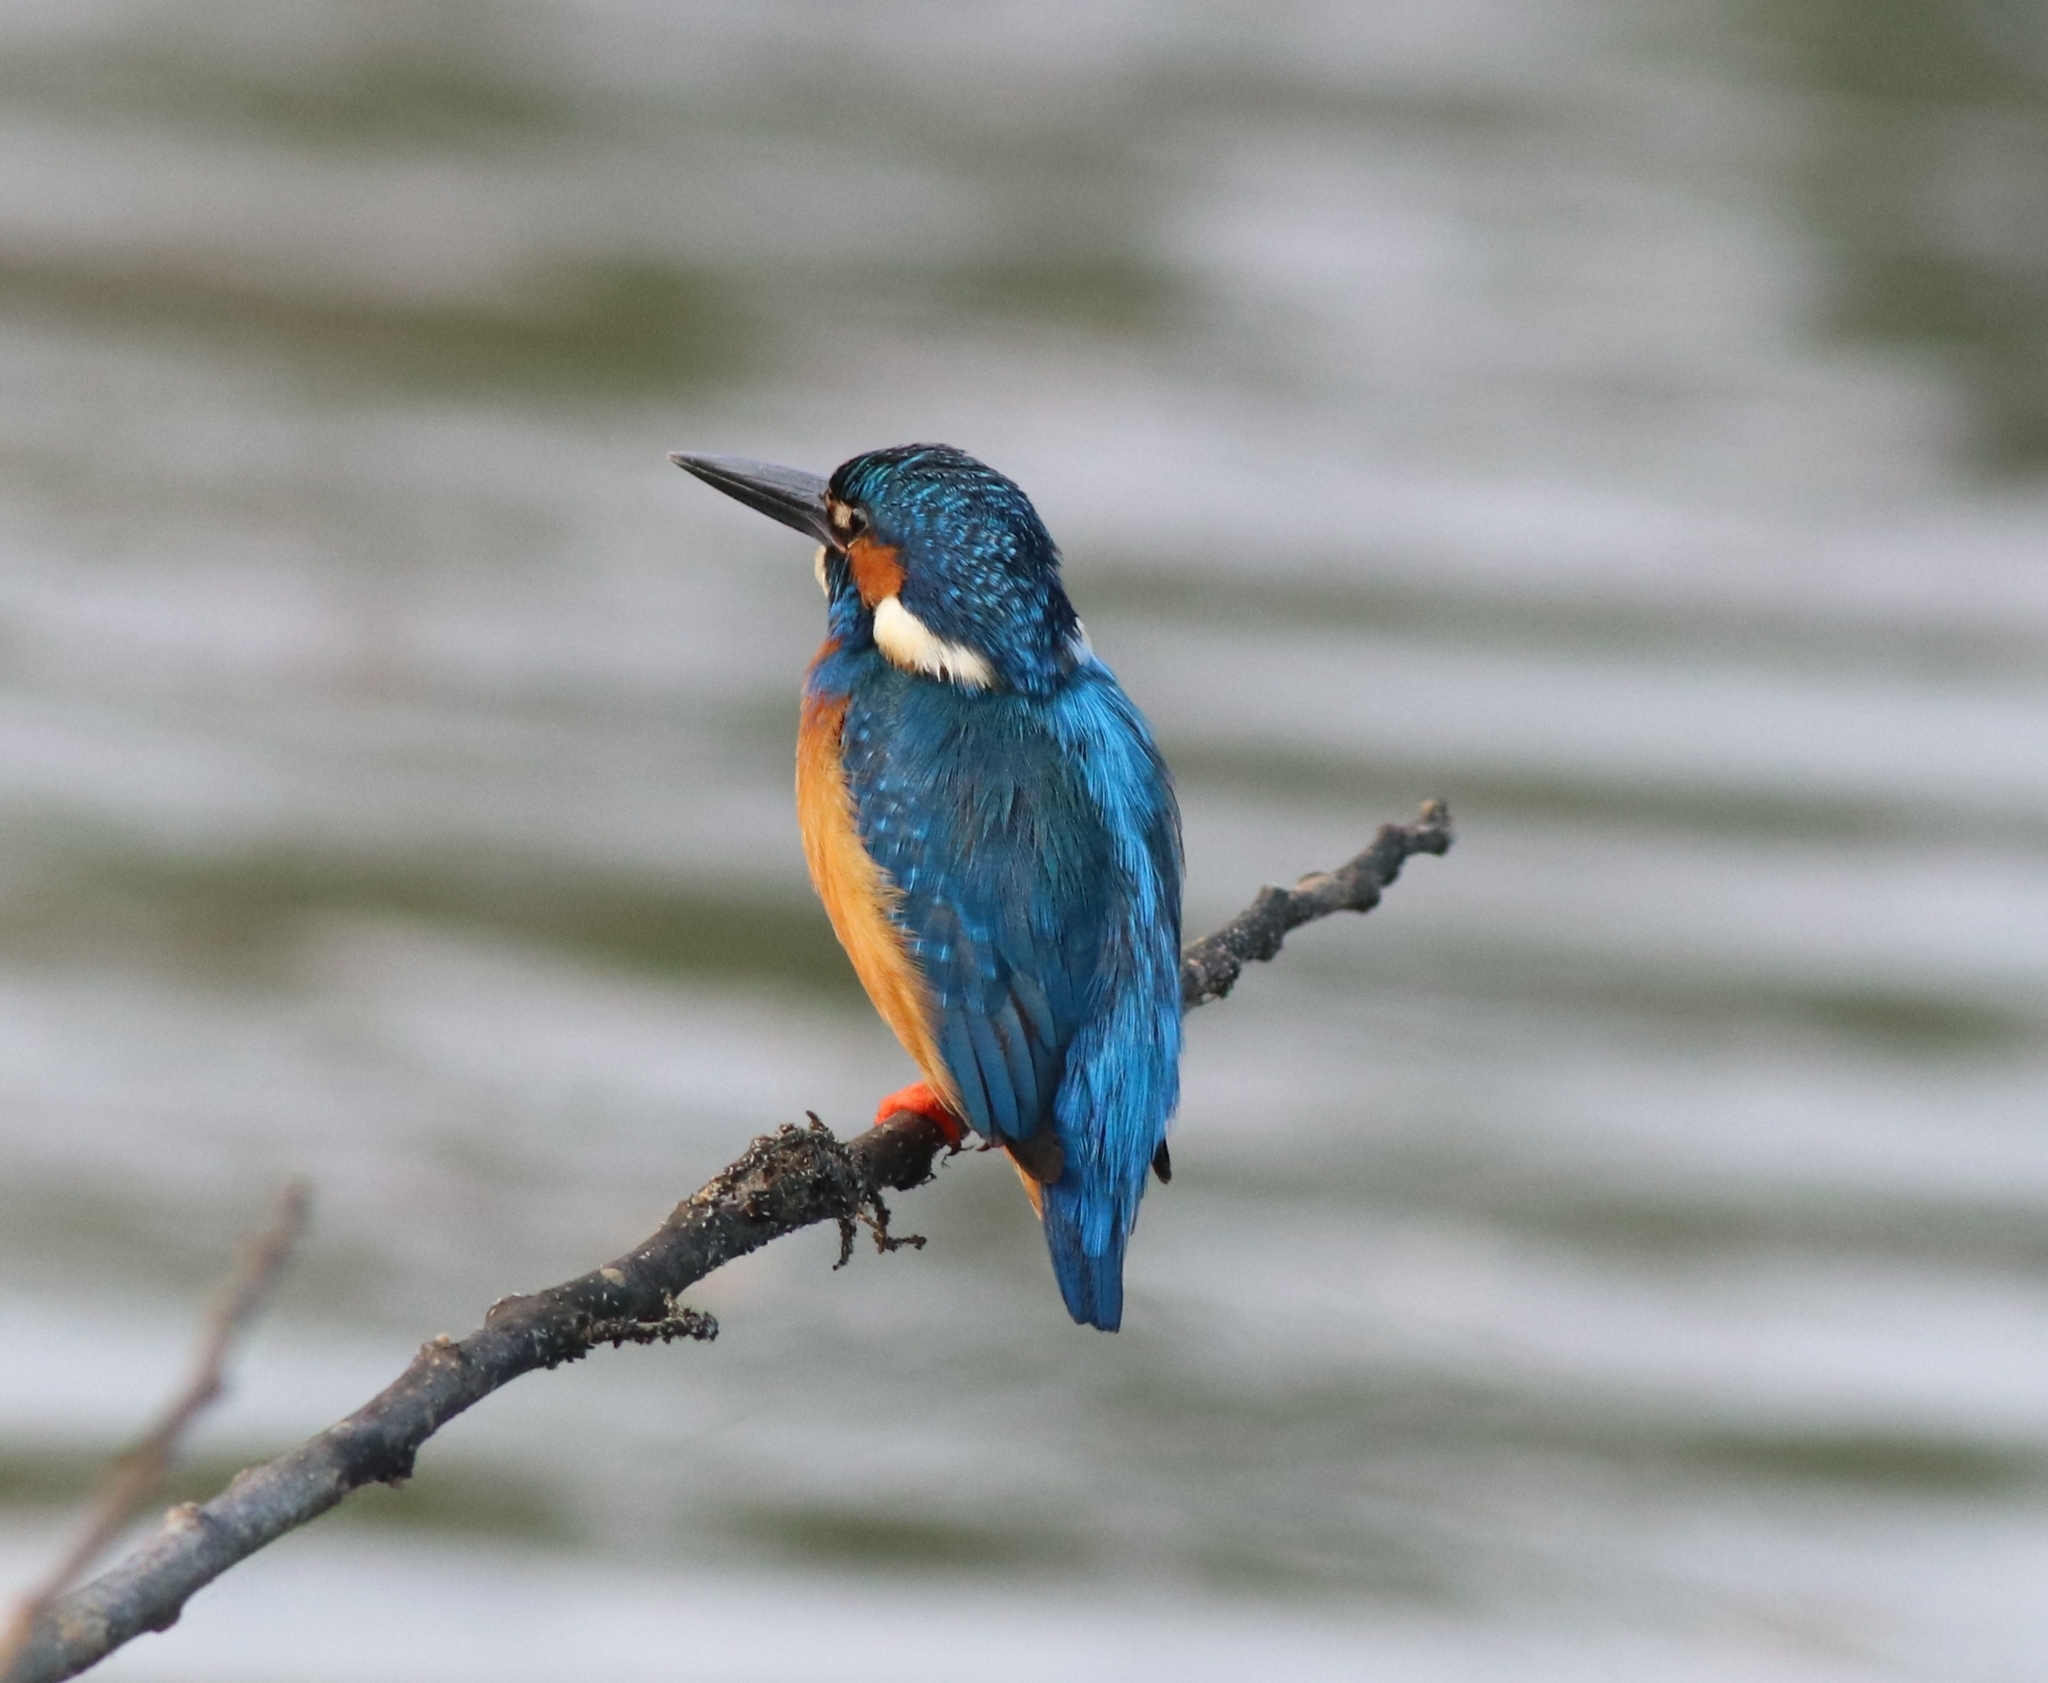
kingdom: Animalia
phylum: Chordata
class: Aves
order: Coraciiformes
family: Alcedinidae
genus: Alcedo
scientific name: Alcedo atthis
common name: Common kingfisher
